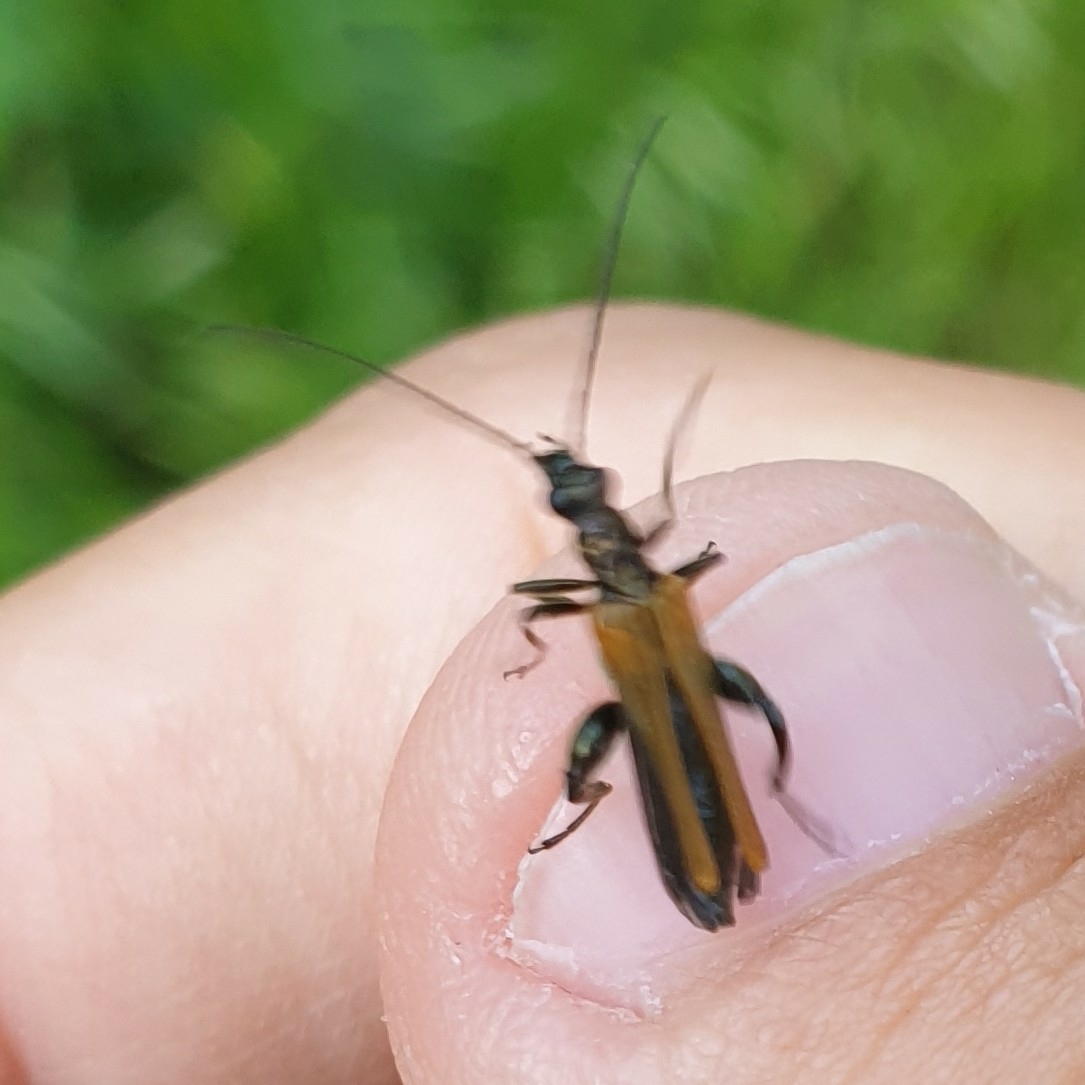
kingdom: Animalia
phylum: Arthropoda
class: Insecta
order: Coleoptera
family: Oedemeridae
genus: Oedemera
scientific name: Oedemera femorata
